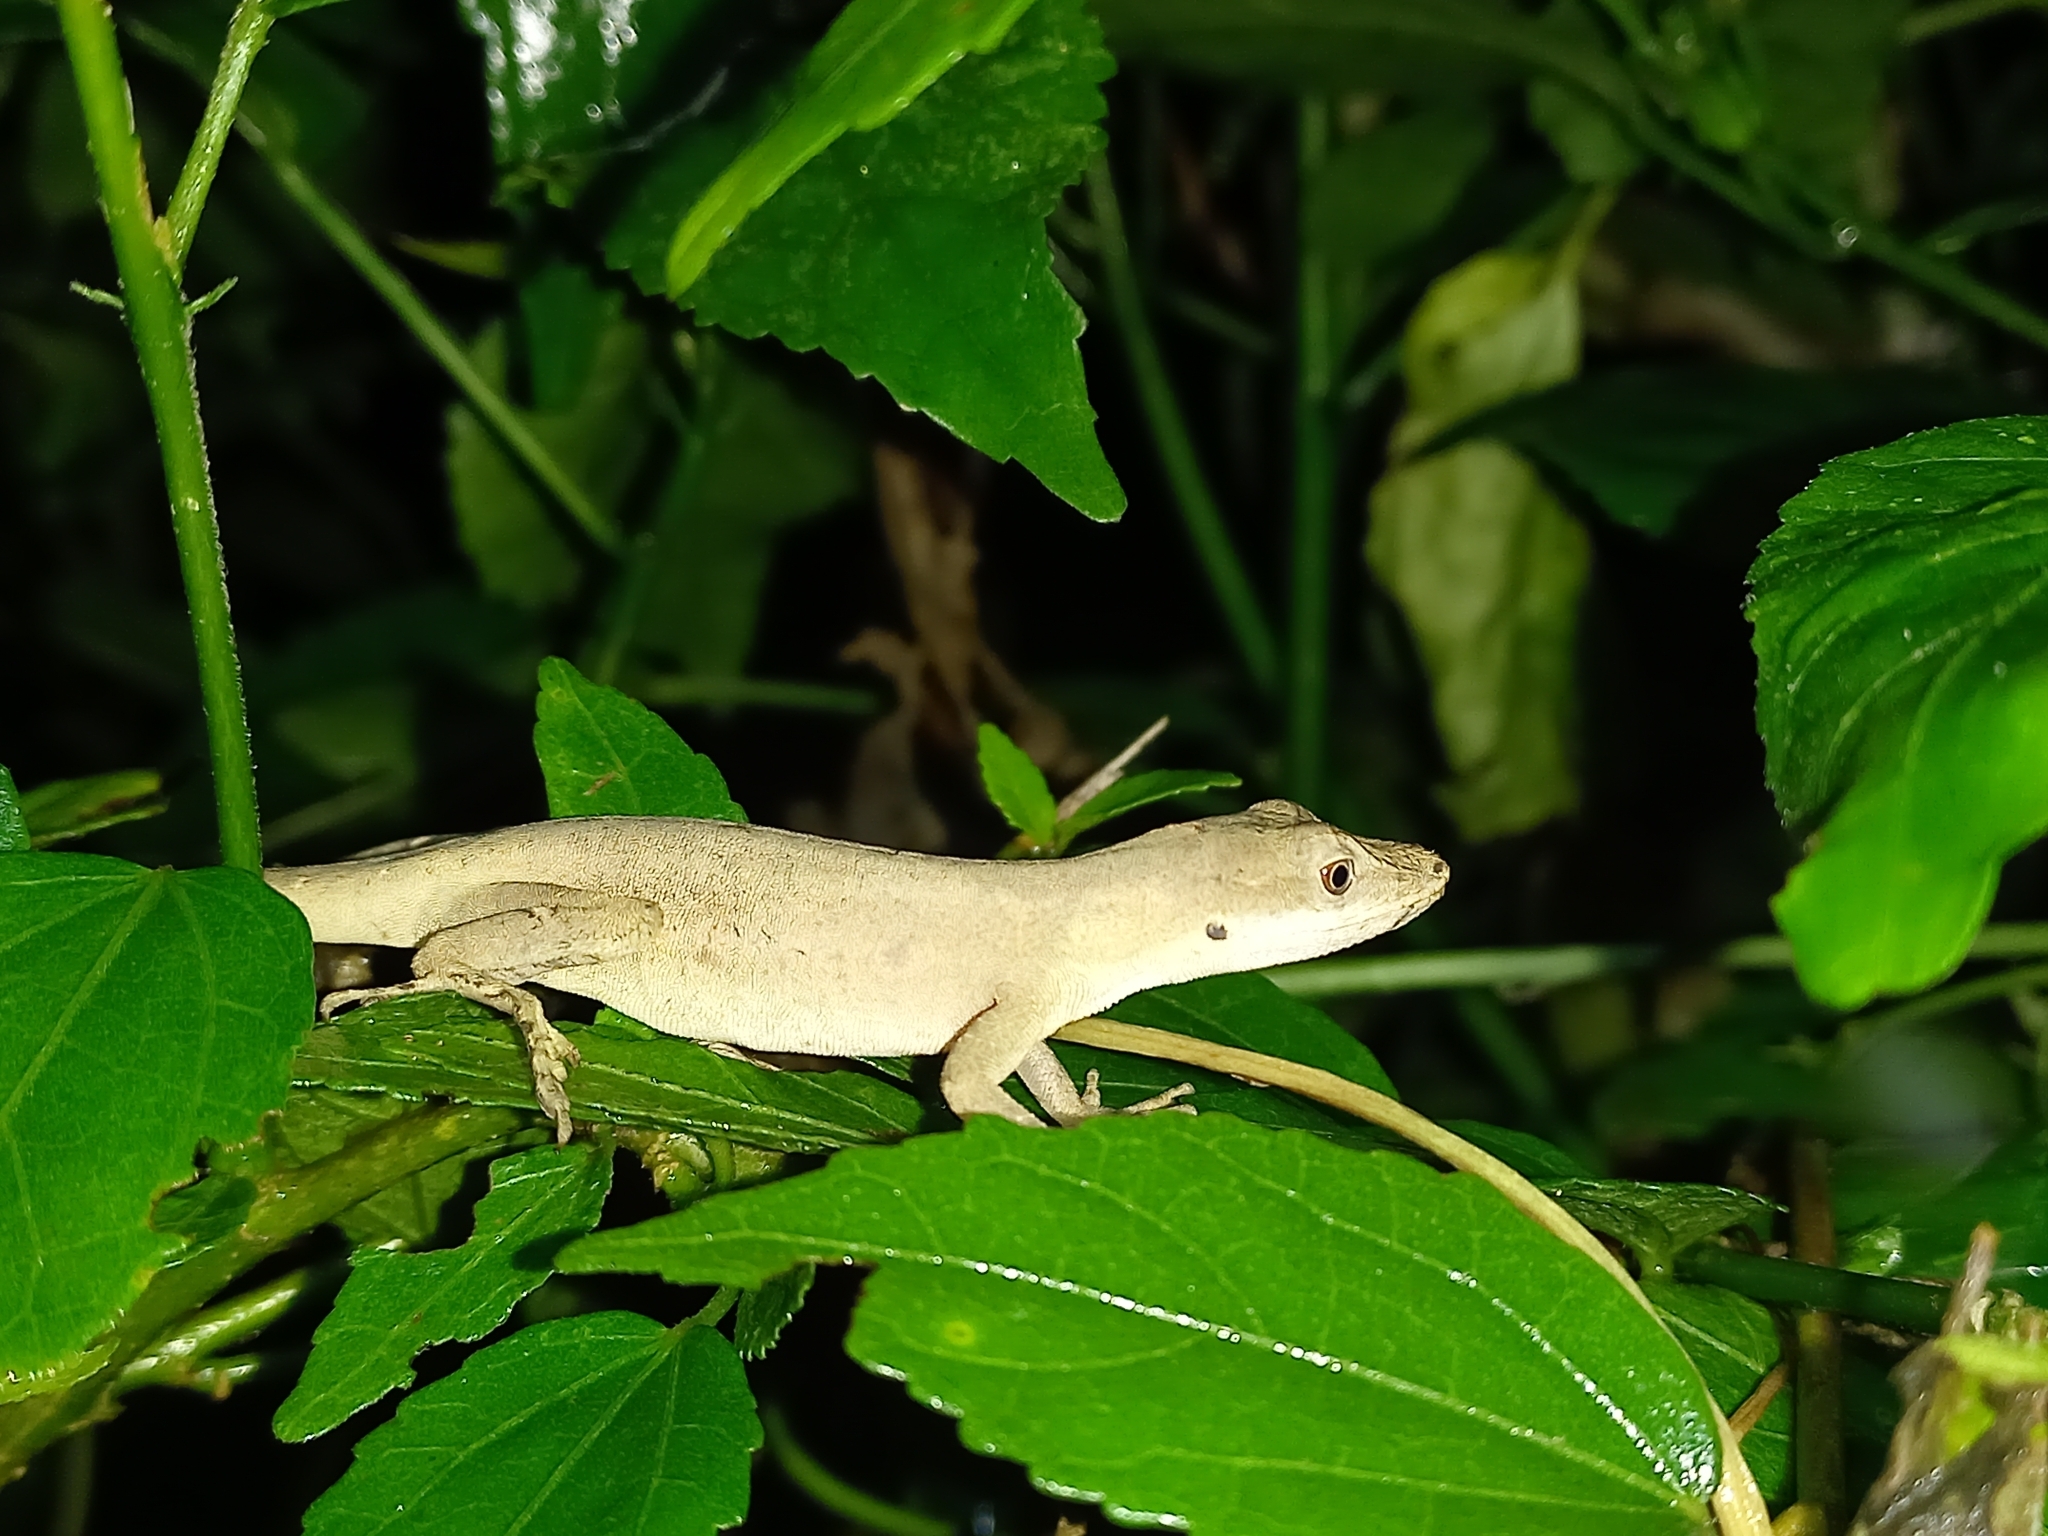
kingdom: Animalia
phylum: Chordata
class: Squamata
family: Dactyloidae
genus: Anolis
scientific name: Anolis antonii
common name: Anton's anole
